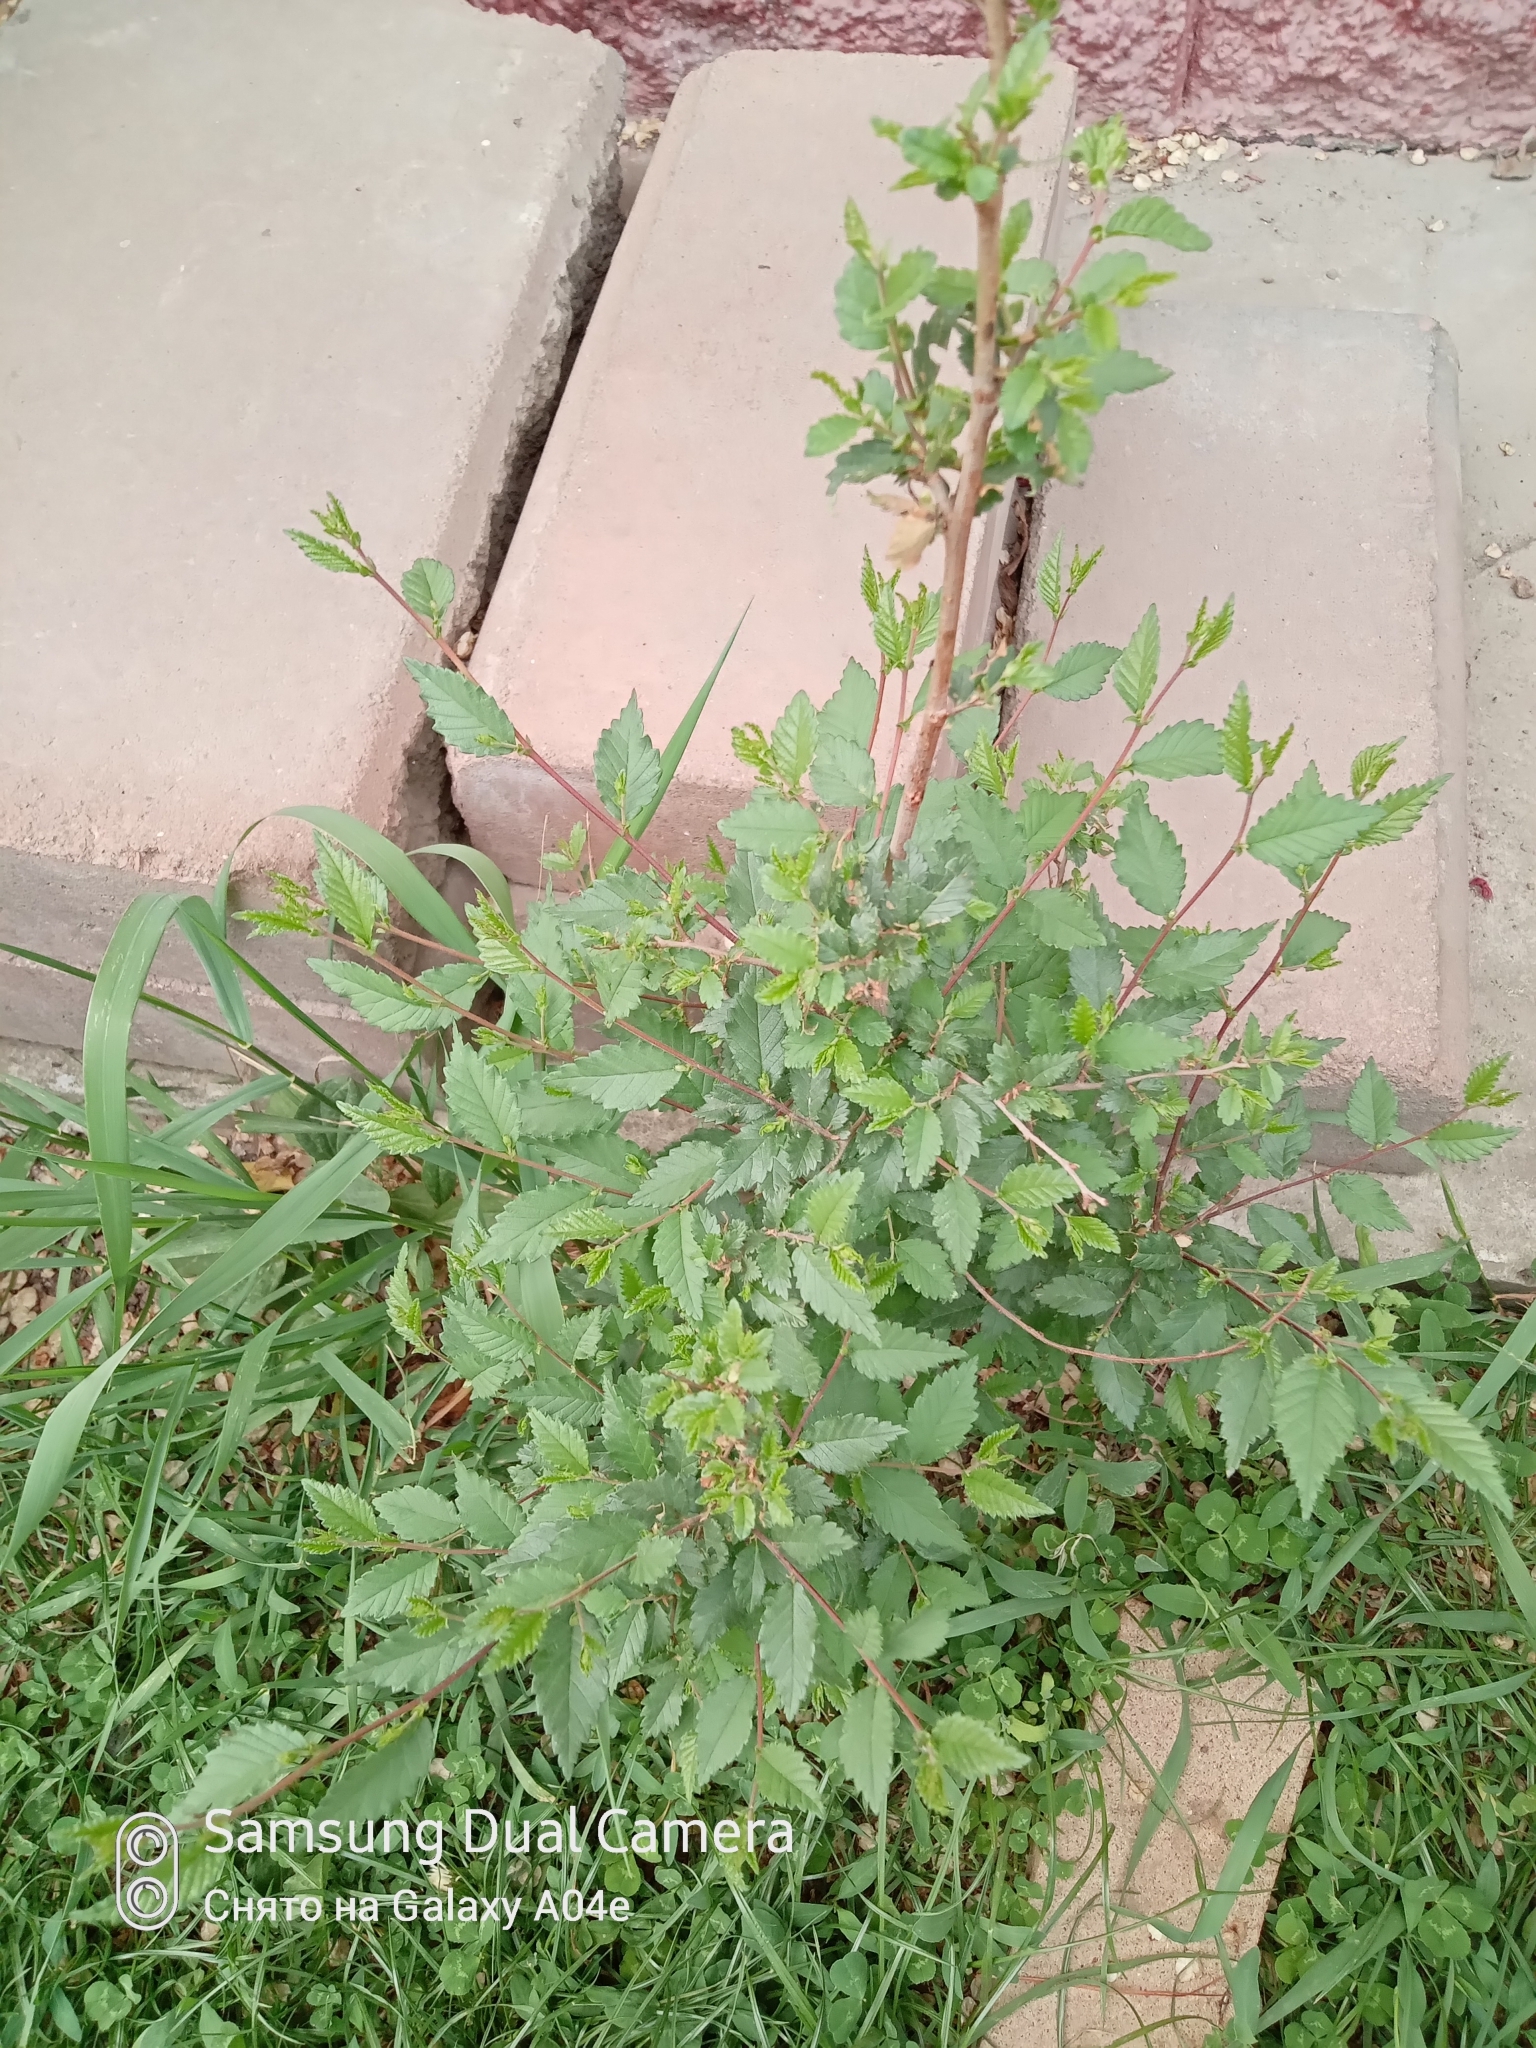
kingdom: Plantae
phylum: Tracheophyta
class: Magnoliopsida
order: Rosales
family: Ulmaceae
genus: Ulmus
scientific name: Ulmus pumila
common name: Siberian elm
